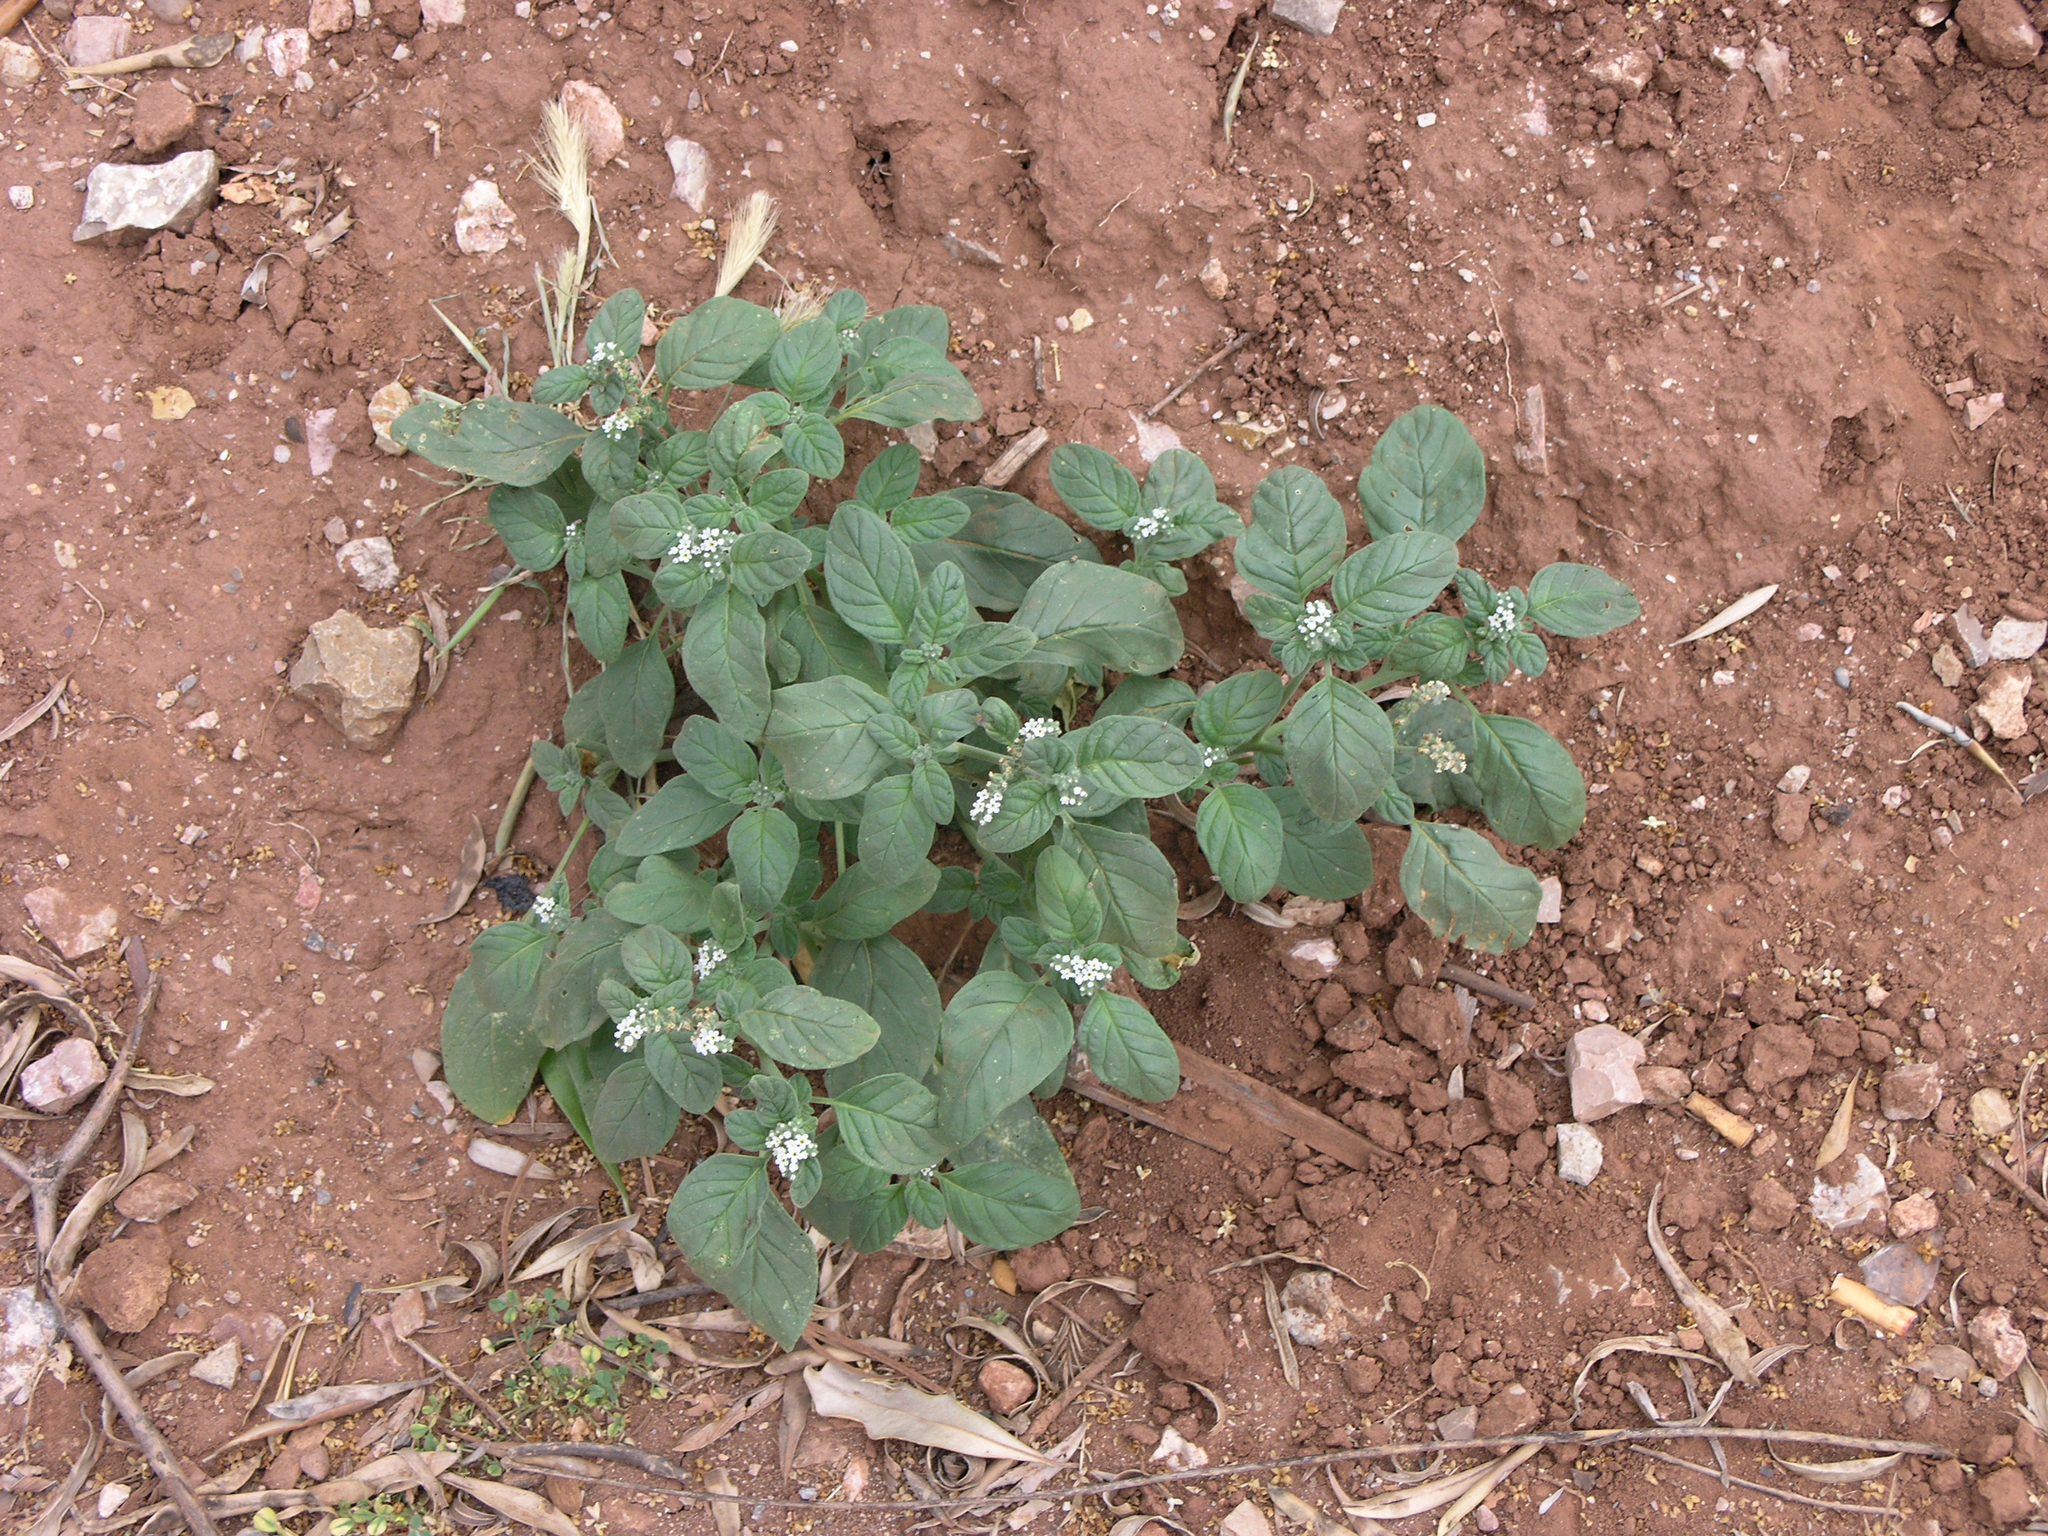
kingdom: Plantae
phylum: Tracheophyta
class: Magnoliopsida
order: Boraginales
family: Heliotropiaceae
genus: Heliotropium
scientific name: Heliotropium europaeum
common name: European heliotrope
